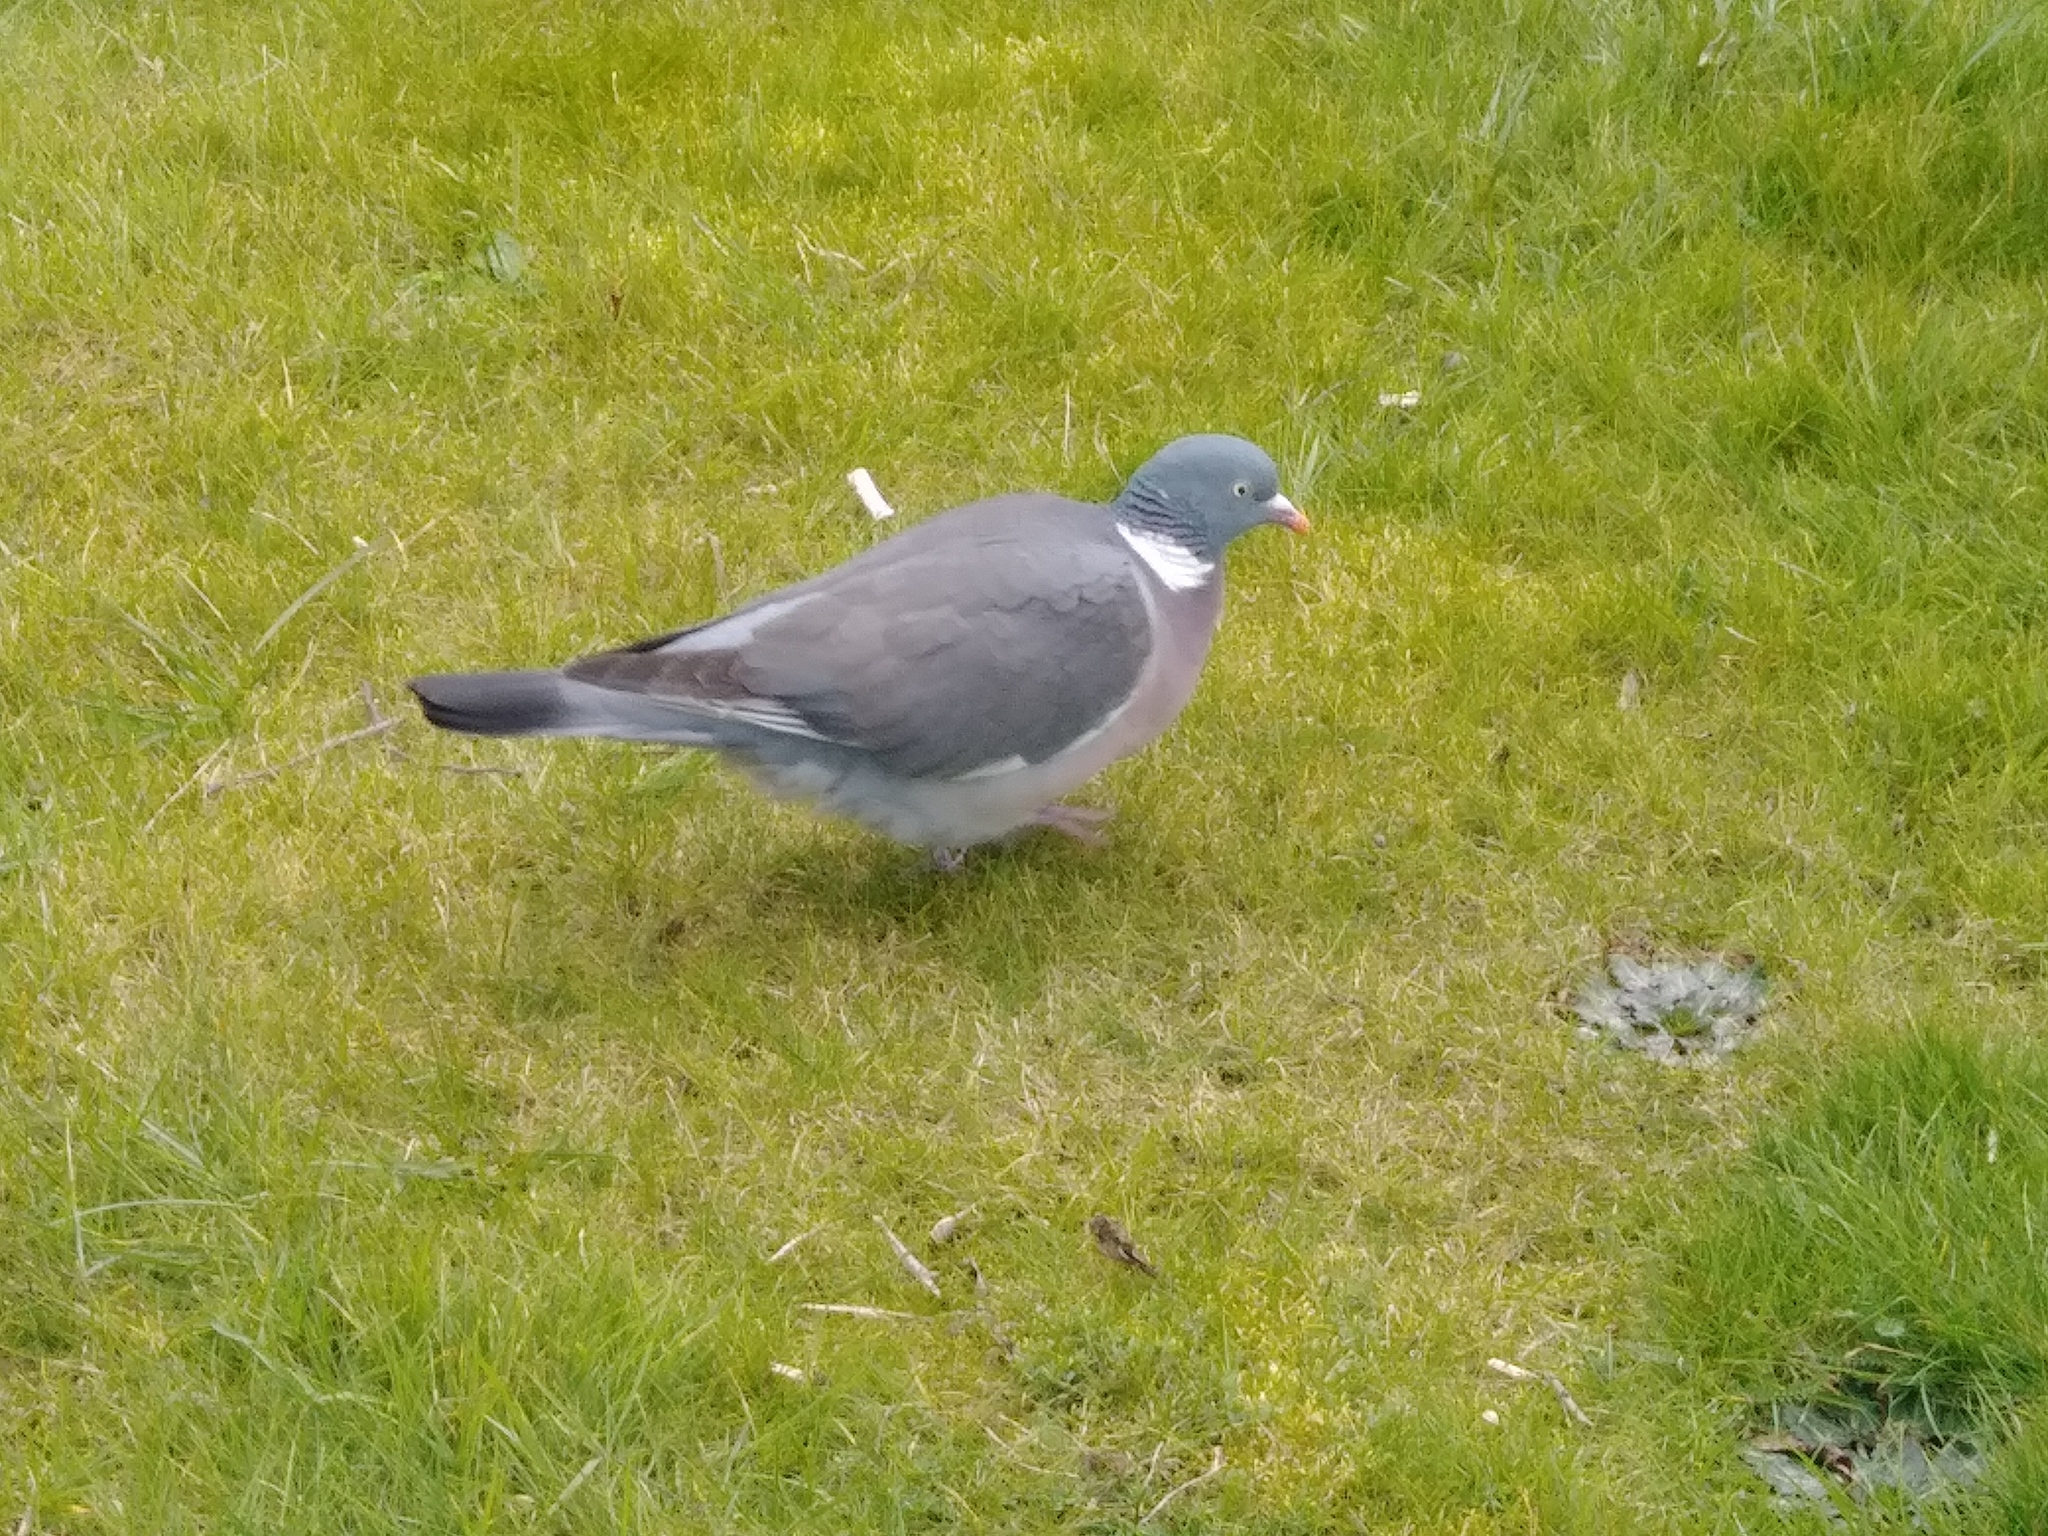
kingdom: Animalia
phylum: Chordata
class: Aves
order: Columbiformes
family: Columbidae
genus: Columba
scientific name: Columba palumbus
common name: Common wood pigeon
